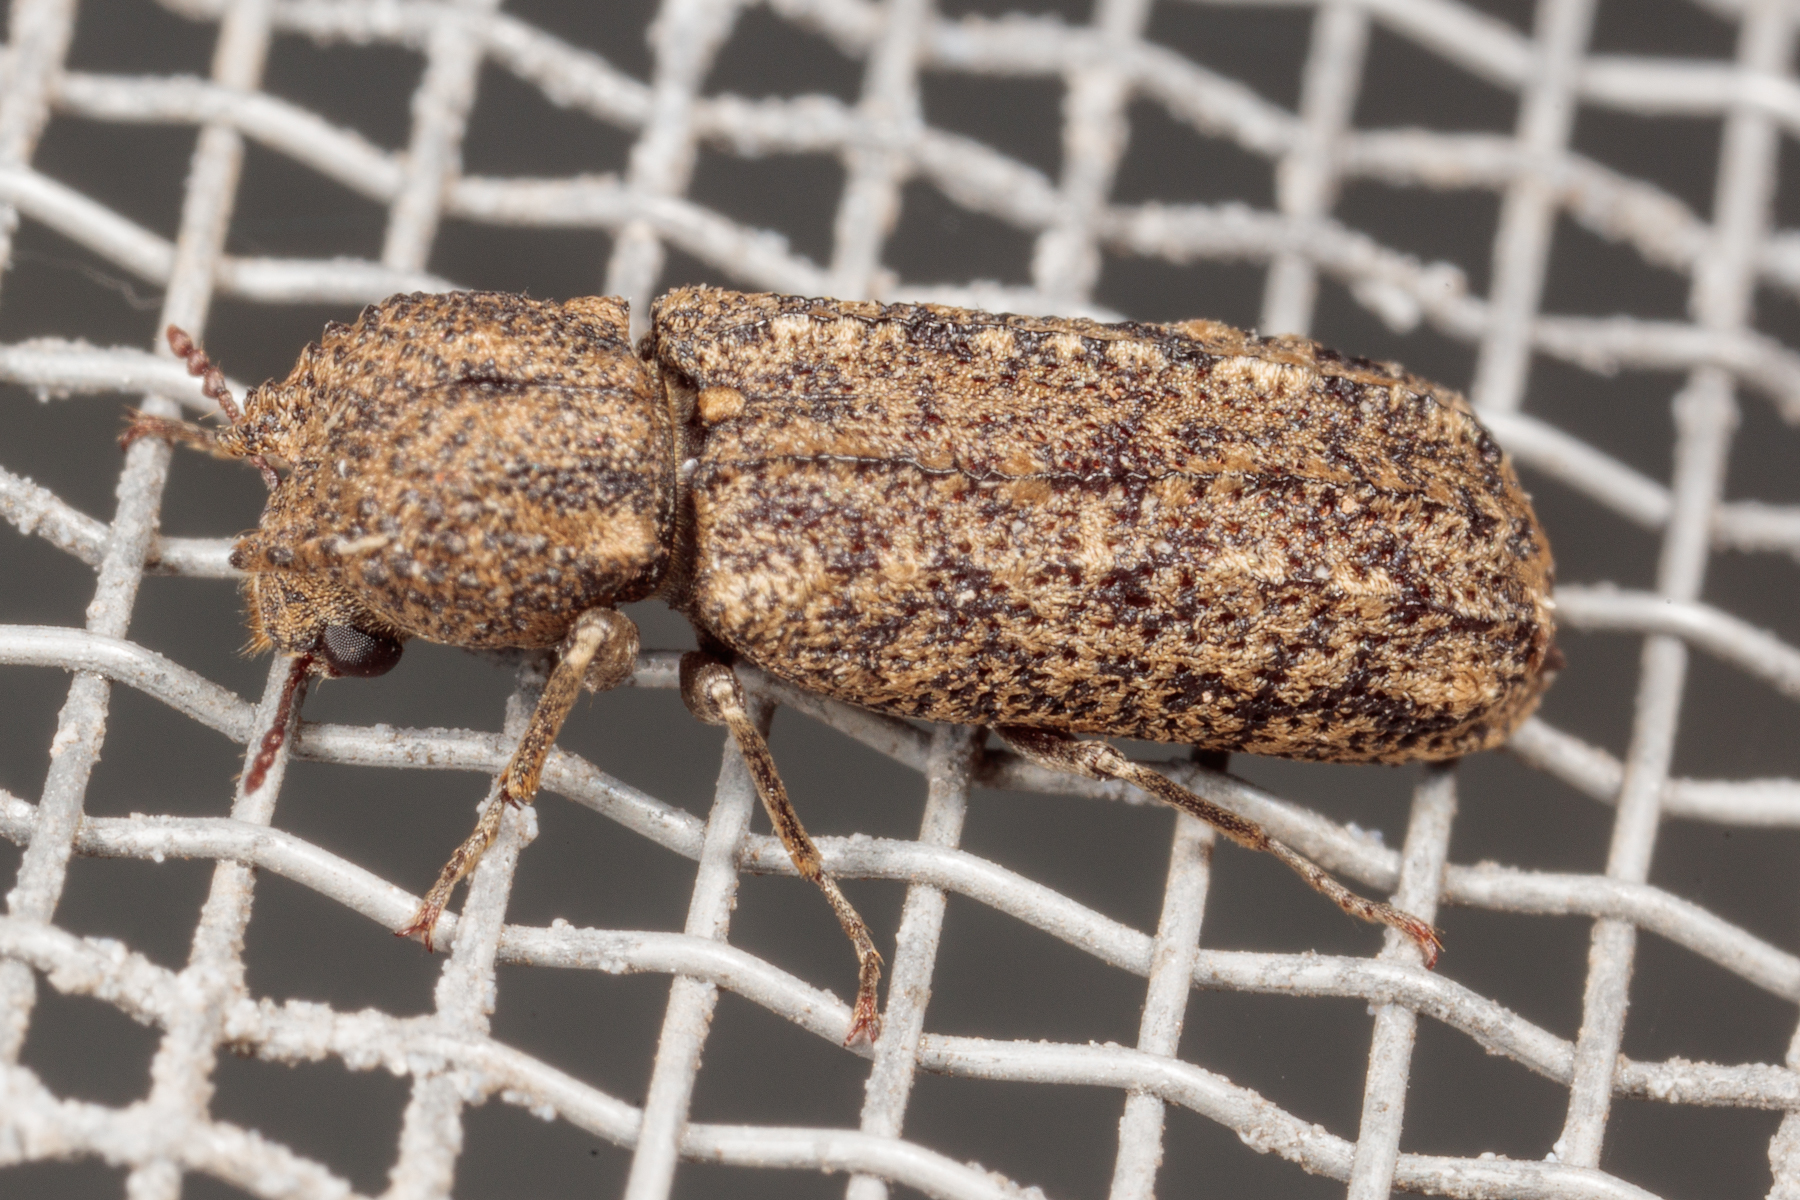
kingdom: Animalia
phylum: Arthropoda
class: Insecta
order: Coleoptera
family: Bostrichidae
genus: Lichenophanes
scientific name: Lichenophanes bicornis
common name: Two-horned powder-post beetle
